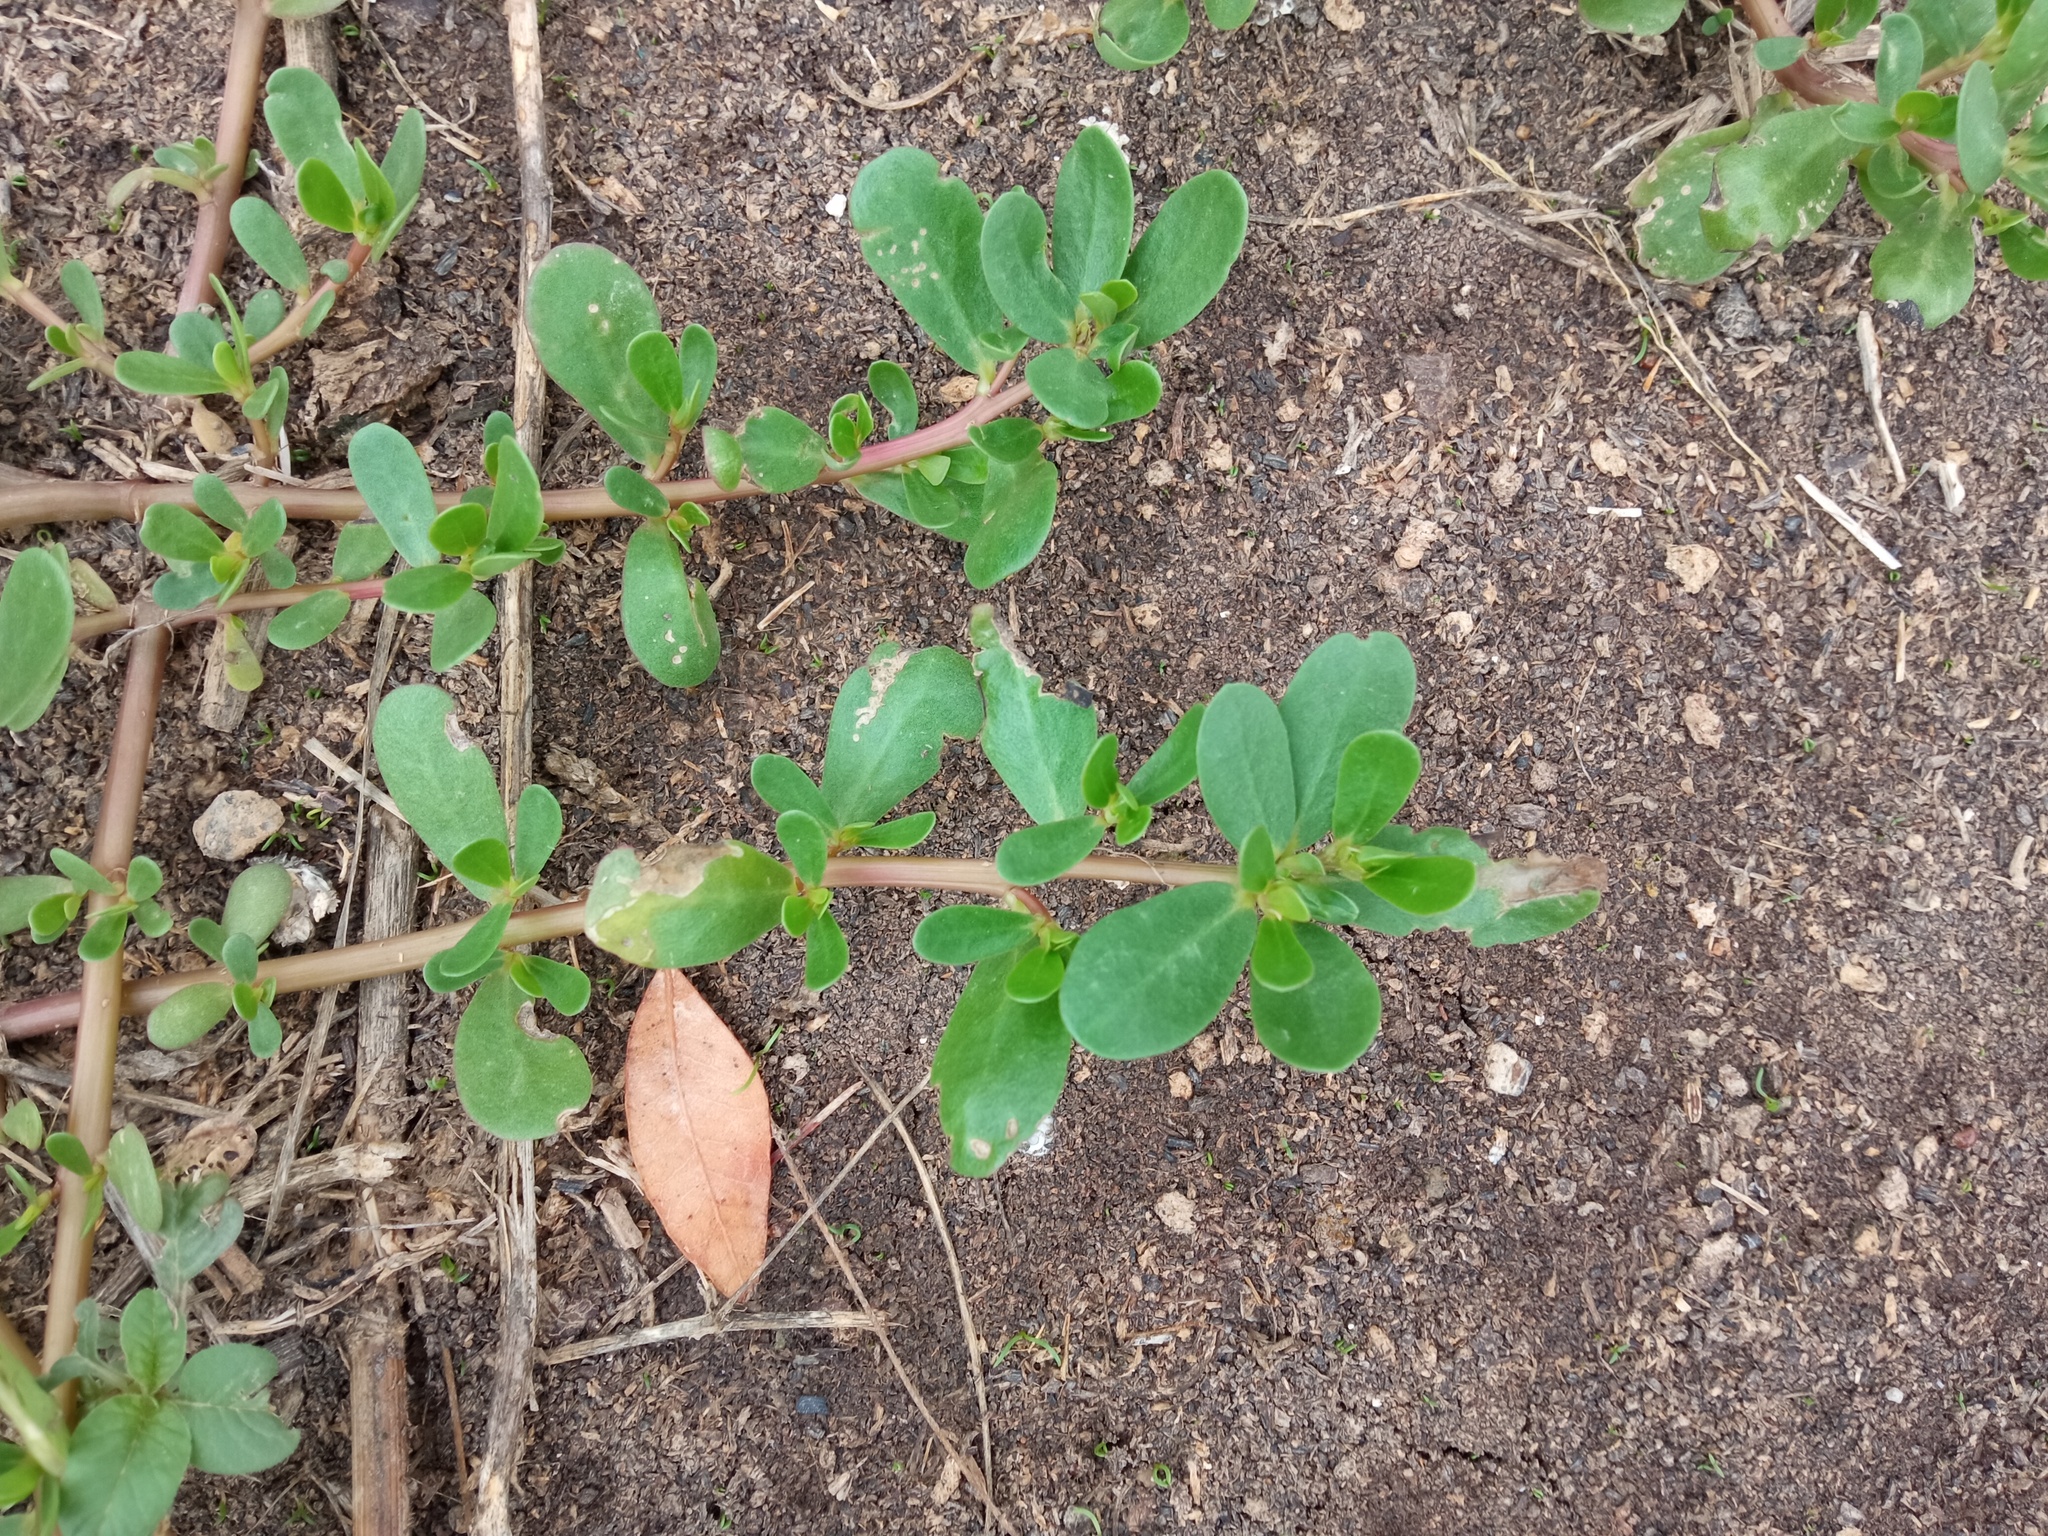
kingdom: Plantae
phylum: Tracheophyta
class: Magnoliopsida
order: Caryophyllales
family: Portulacaceae
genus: Portulaca
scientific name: Portulaca oleracea
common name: Common purslane
